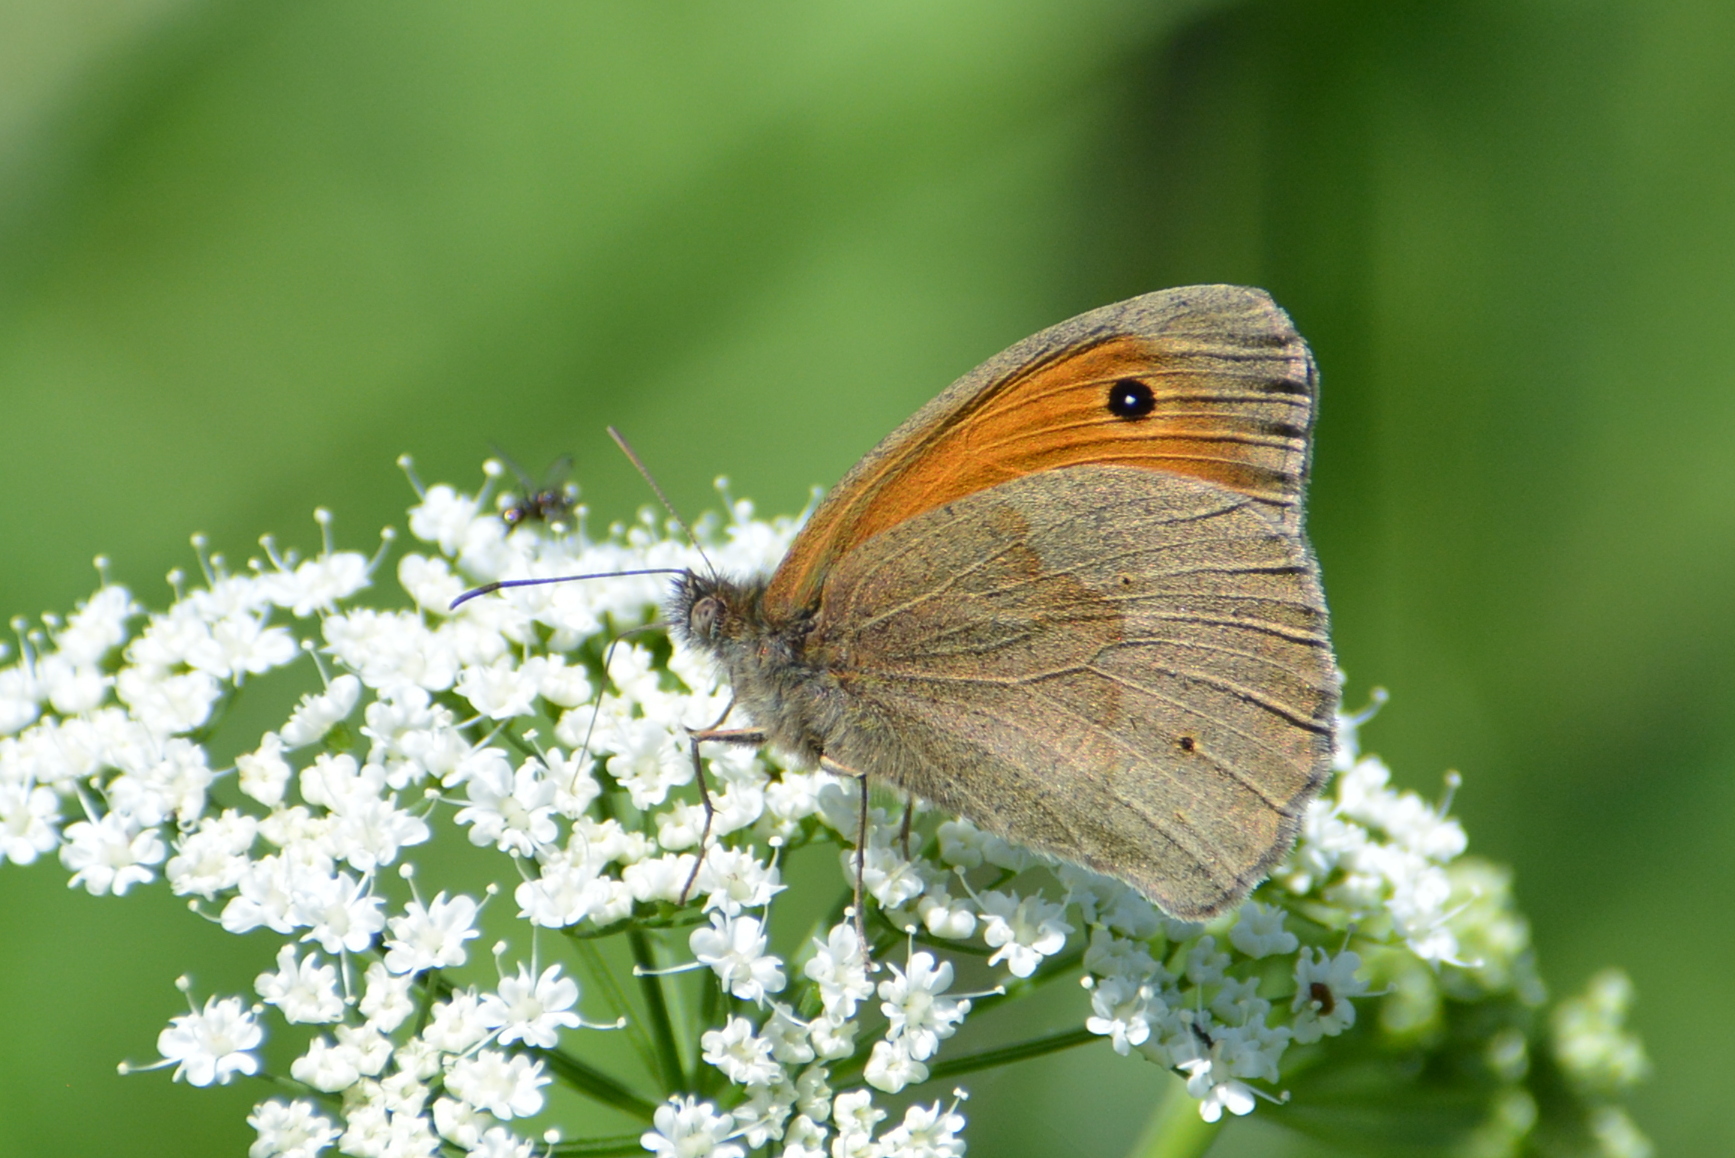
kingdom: Animalia
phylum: Arthropoda
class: Insecta
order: Lepidoptera
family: Nymphalidae
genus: Maniola
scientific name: Maniola jurtina
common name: Meadow brown
